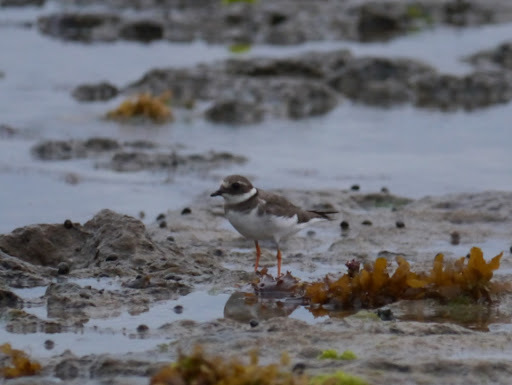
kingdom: Animalia
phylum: Chordata
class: Aves
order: Charadriiformes
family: Charadriidae
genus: Charadrius
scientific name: Charadrius hiaticula
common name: Common ringed plover
